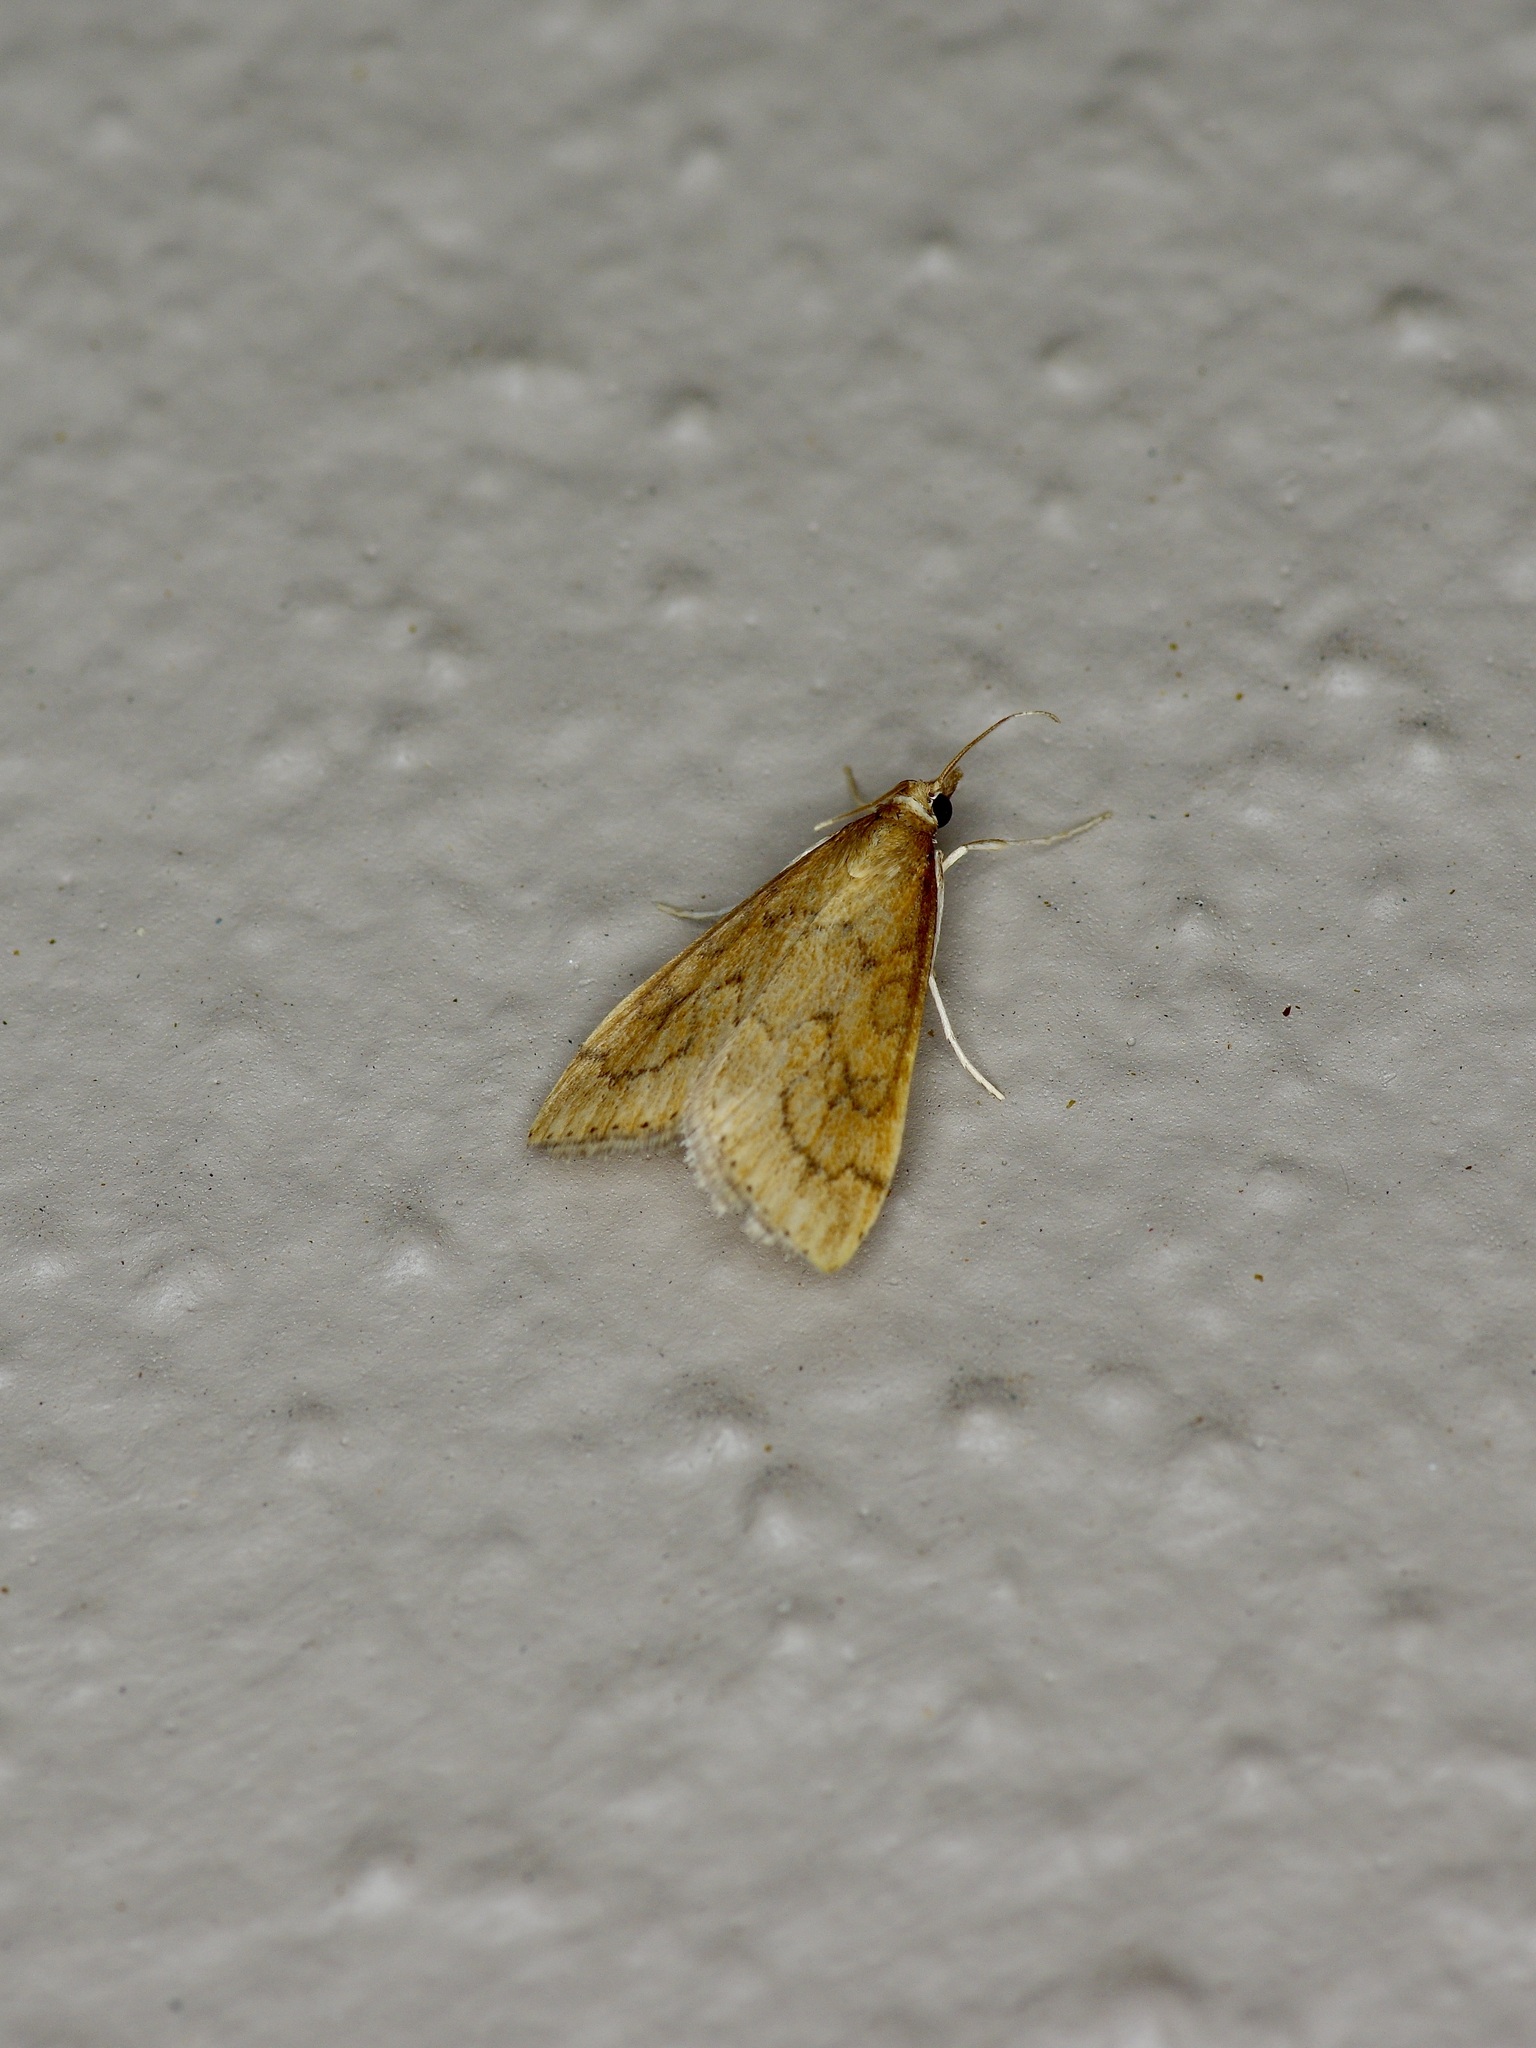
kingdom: Animalia
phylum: Arthropoda
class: Insecta
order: Lepidoptera
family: Crambidae
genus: Udea
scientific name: Udea rubigalis
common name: Celery leaftier moth
